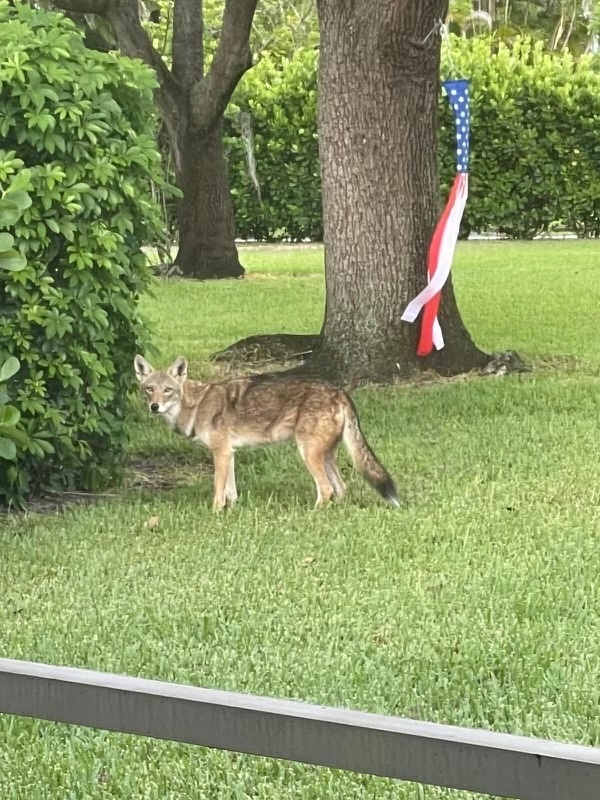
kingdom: Animalia
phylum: Chordata
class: Mammalia
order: Carnivora
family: Canidae
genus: Canis
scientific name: Canis latrans
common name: Coyote
